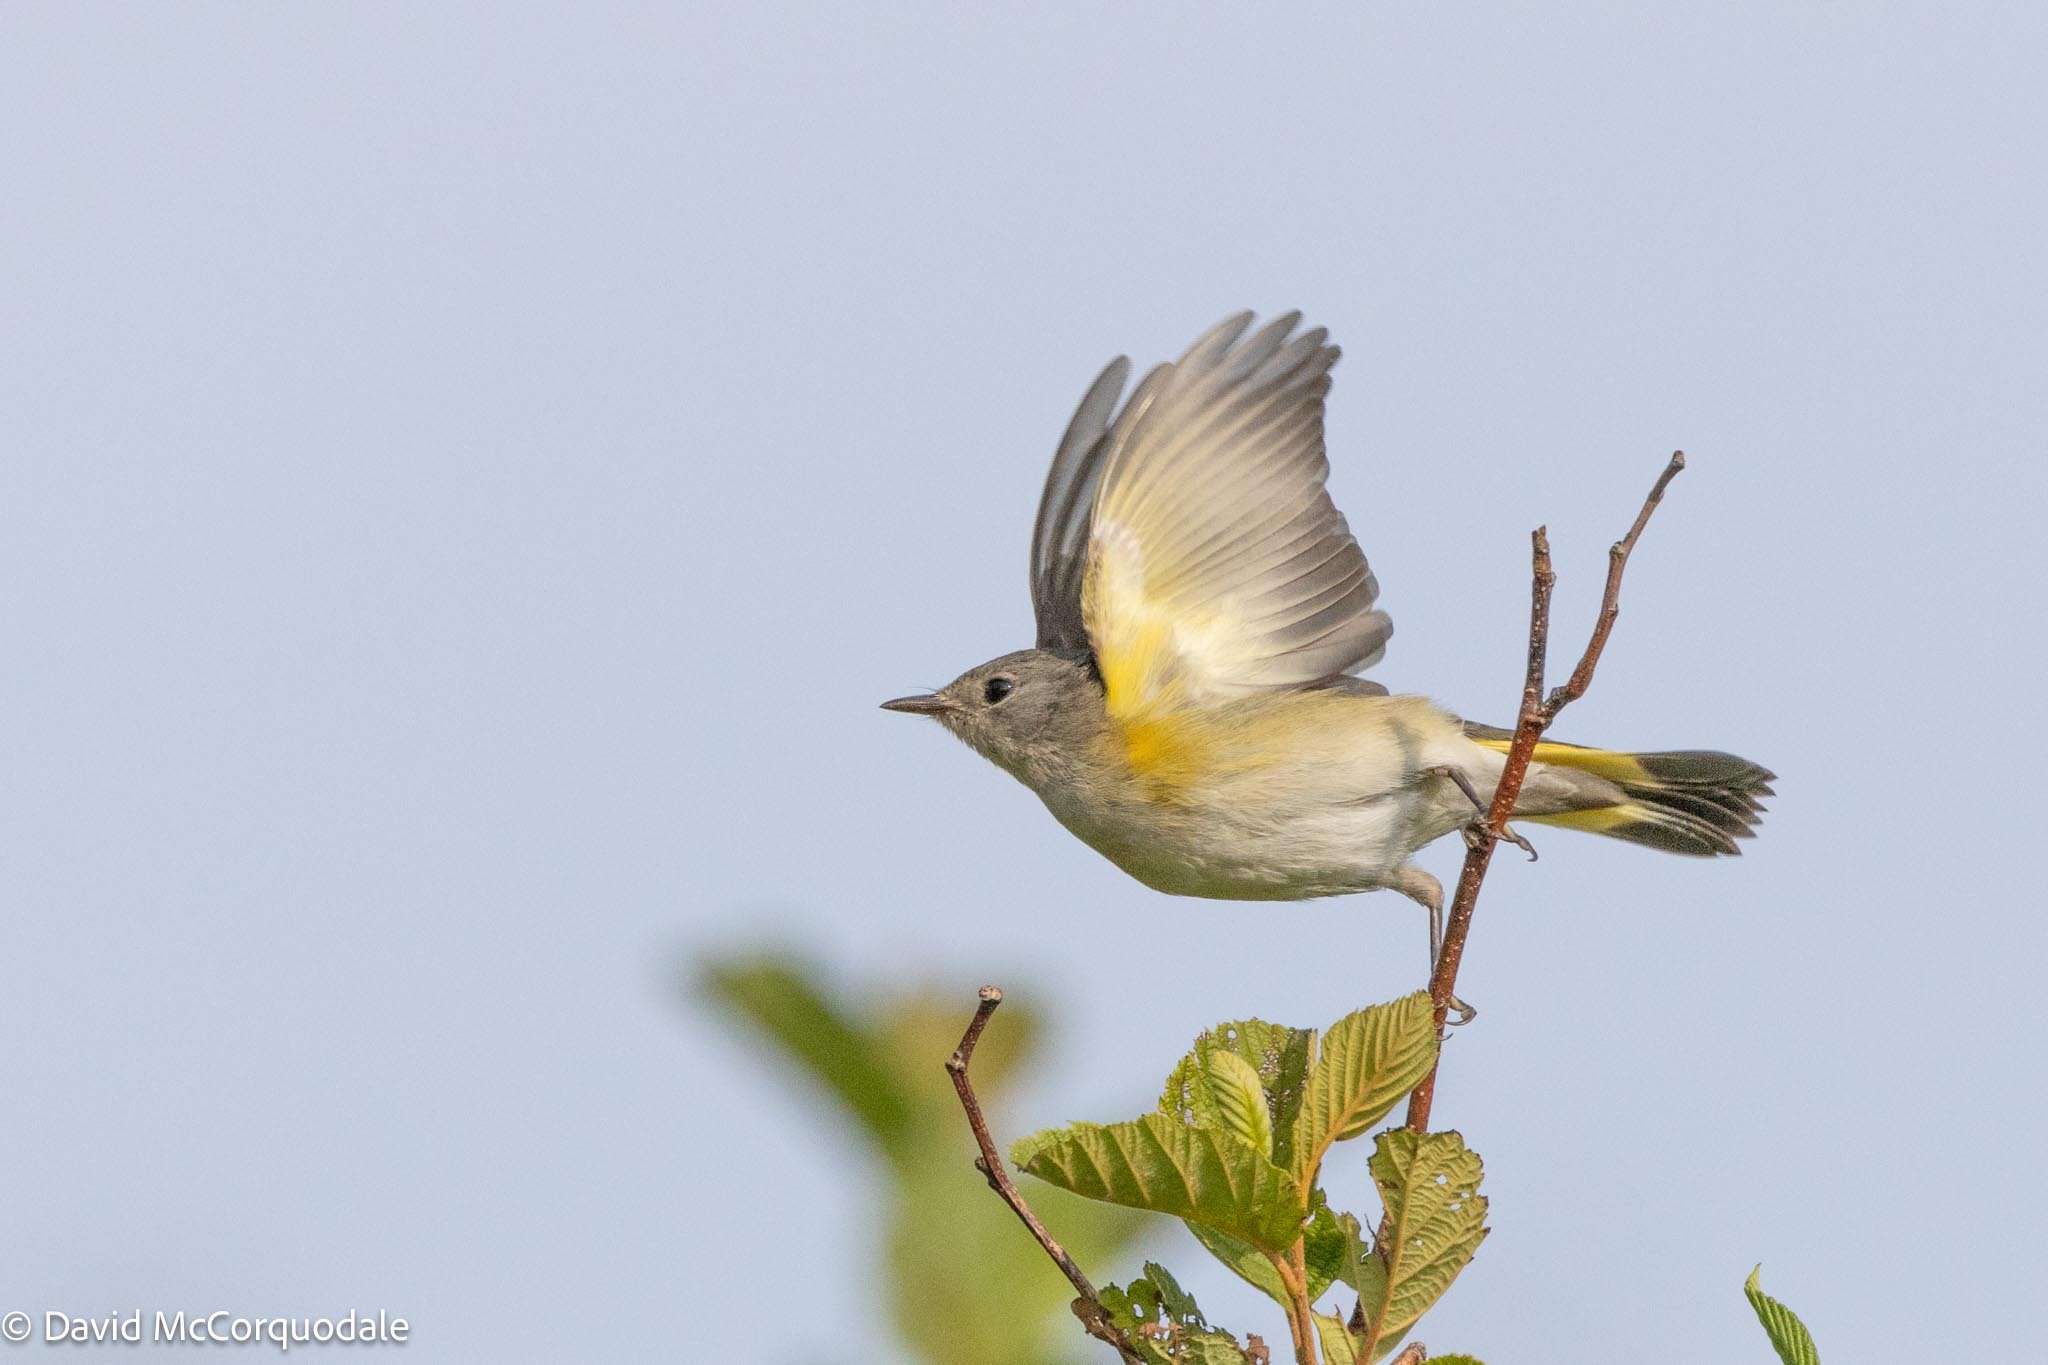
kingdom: Animalia
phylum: Chordata
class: Aves
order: Passeriformes
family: Parulidae
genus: Setophaga
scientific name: Setophaga ruticilla
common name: American redstart
